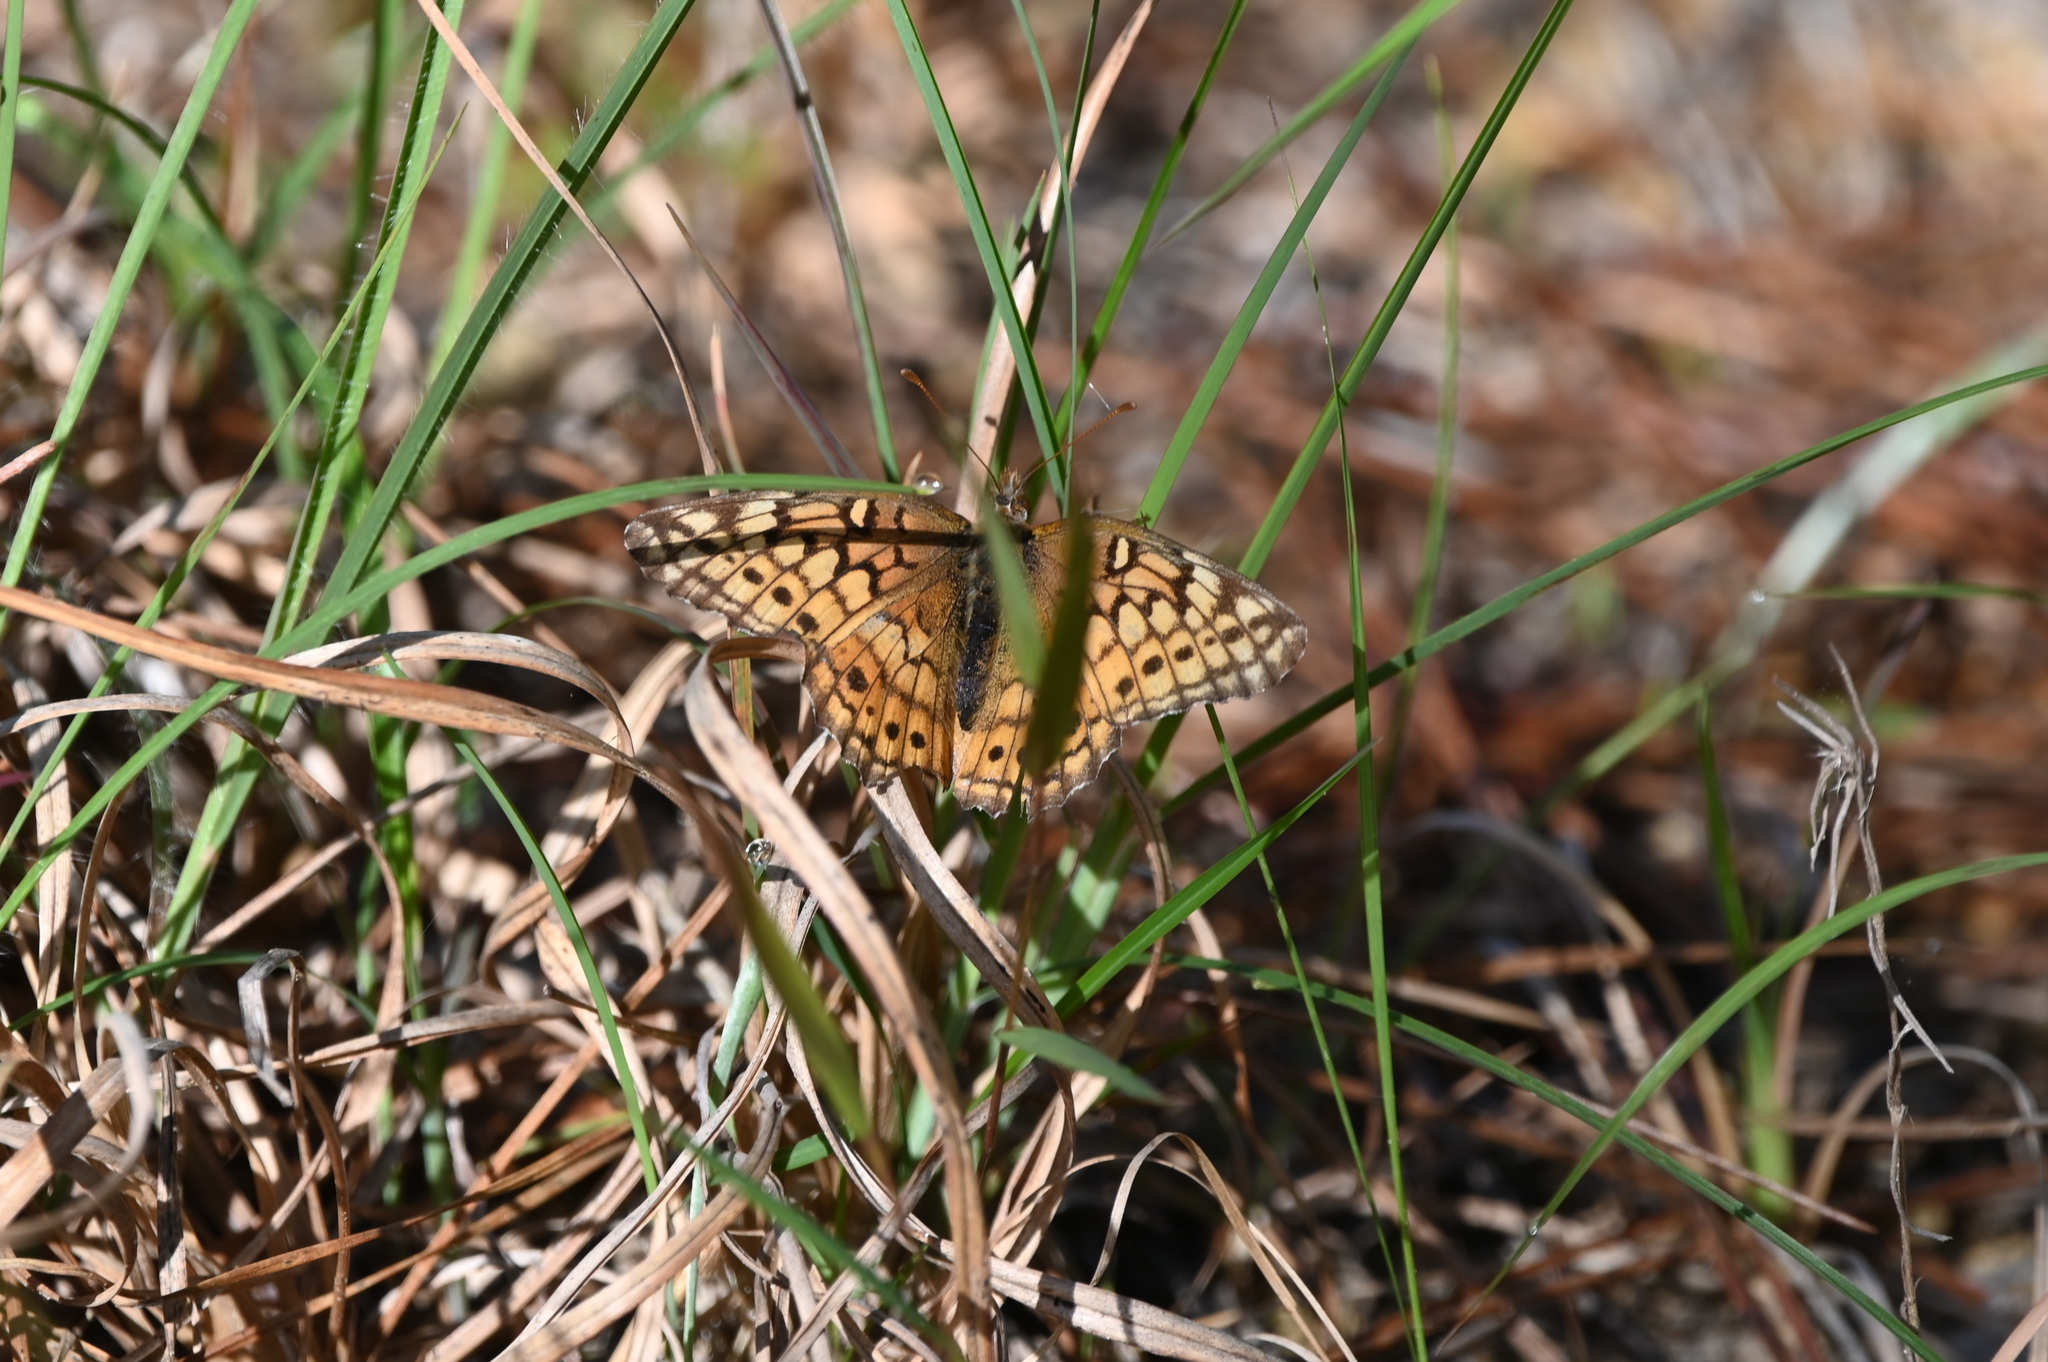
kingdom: Animalia
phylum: Arthropoda
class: Insecta
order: Lepidoptera
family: Nymphalidae
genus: Euptoieta
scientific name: Euptoieta claudia
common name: Variegated fritillary
